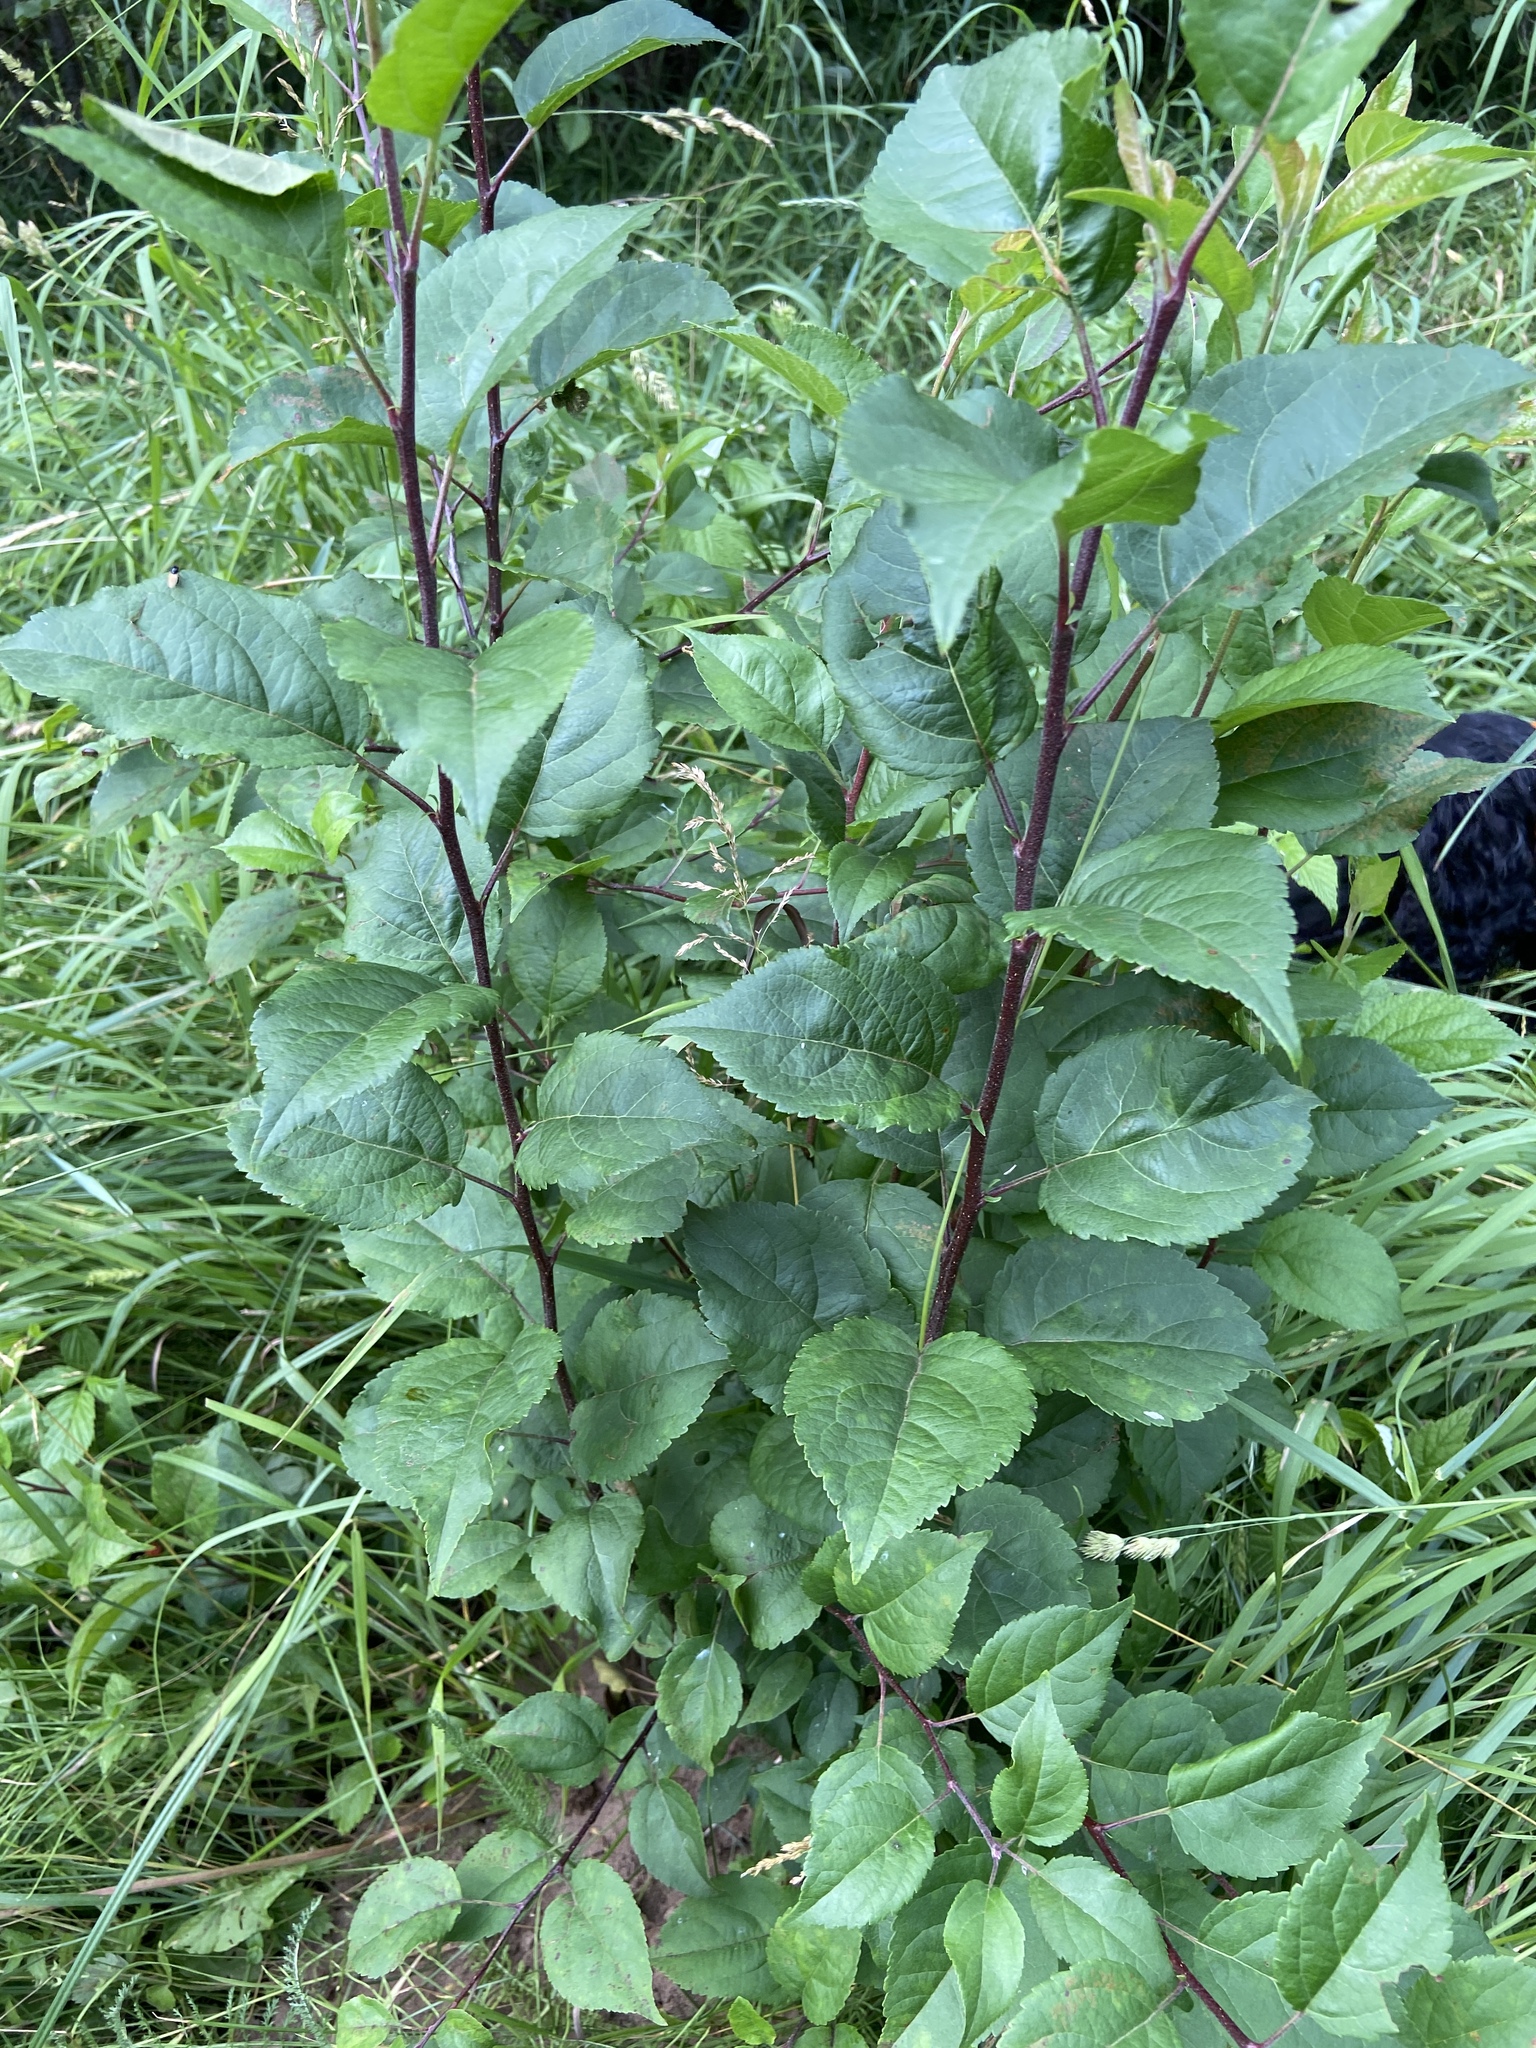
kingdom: Plantae
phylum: Tracheophyta
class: Magnoliopsida
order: Rosales
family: Rosaceae
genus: Malus
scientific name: Malus domestica
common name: Apple
